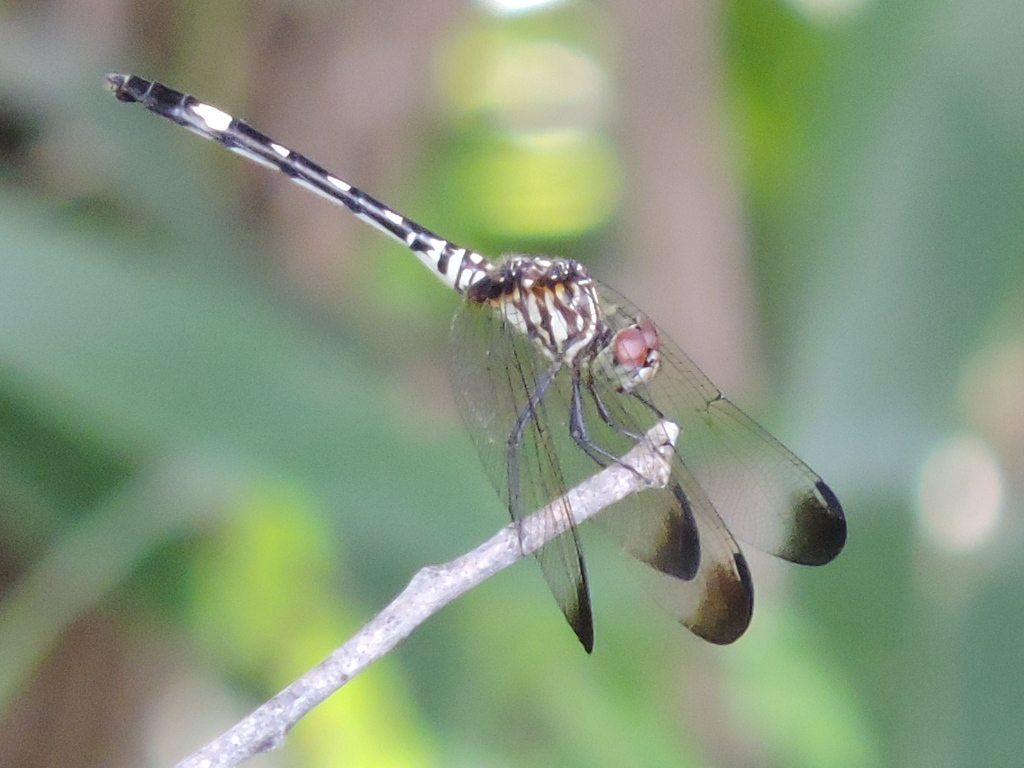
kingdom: Animalia
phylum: Arthropoda
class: Insecta
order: Odonata
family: Libellulidae
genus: Dythemis
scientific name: Dythemis velox
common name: Swift setwing
